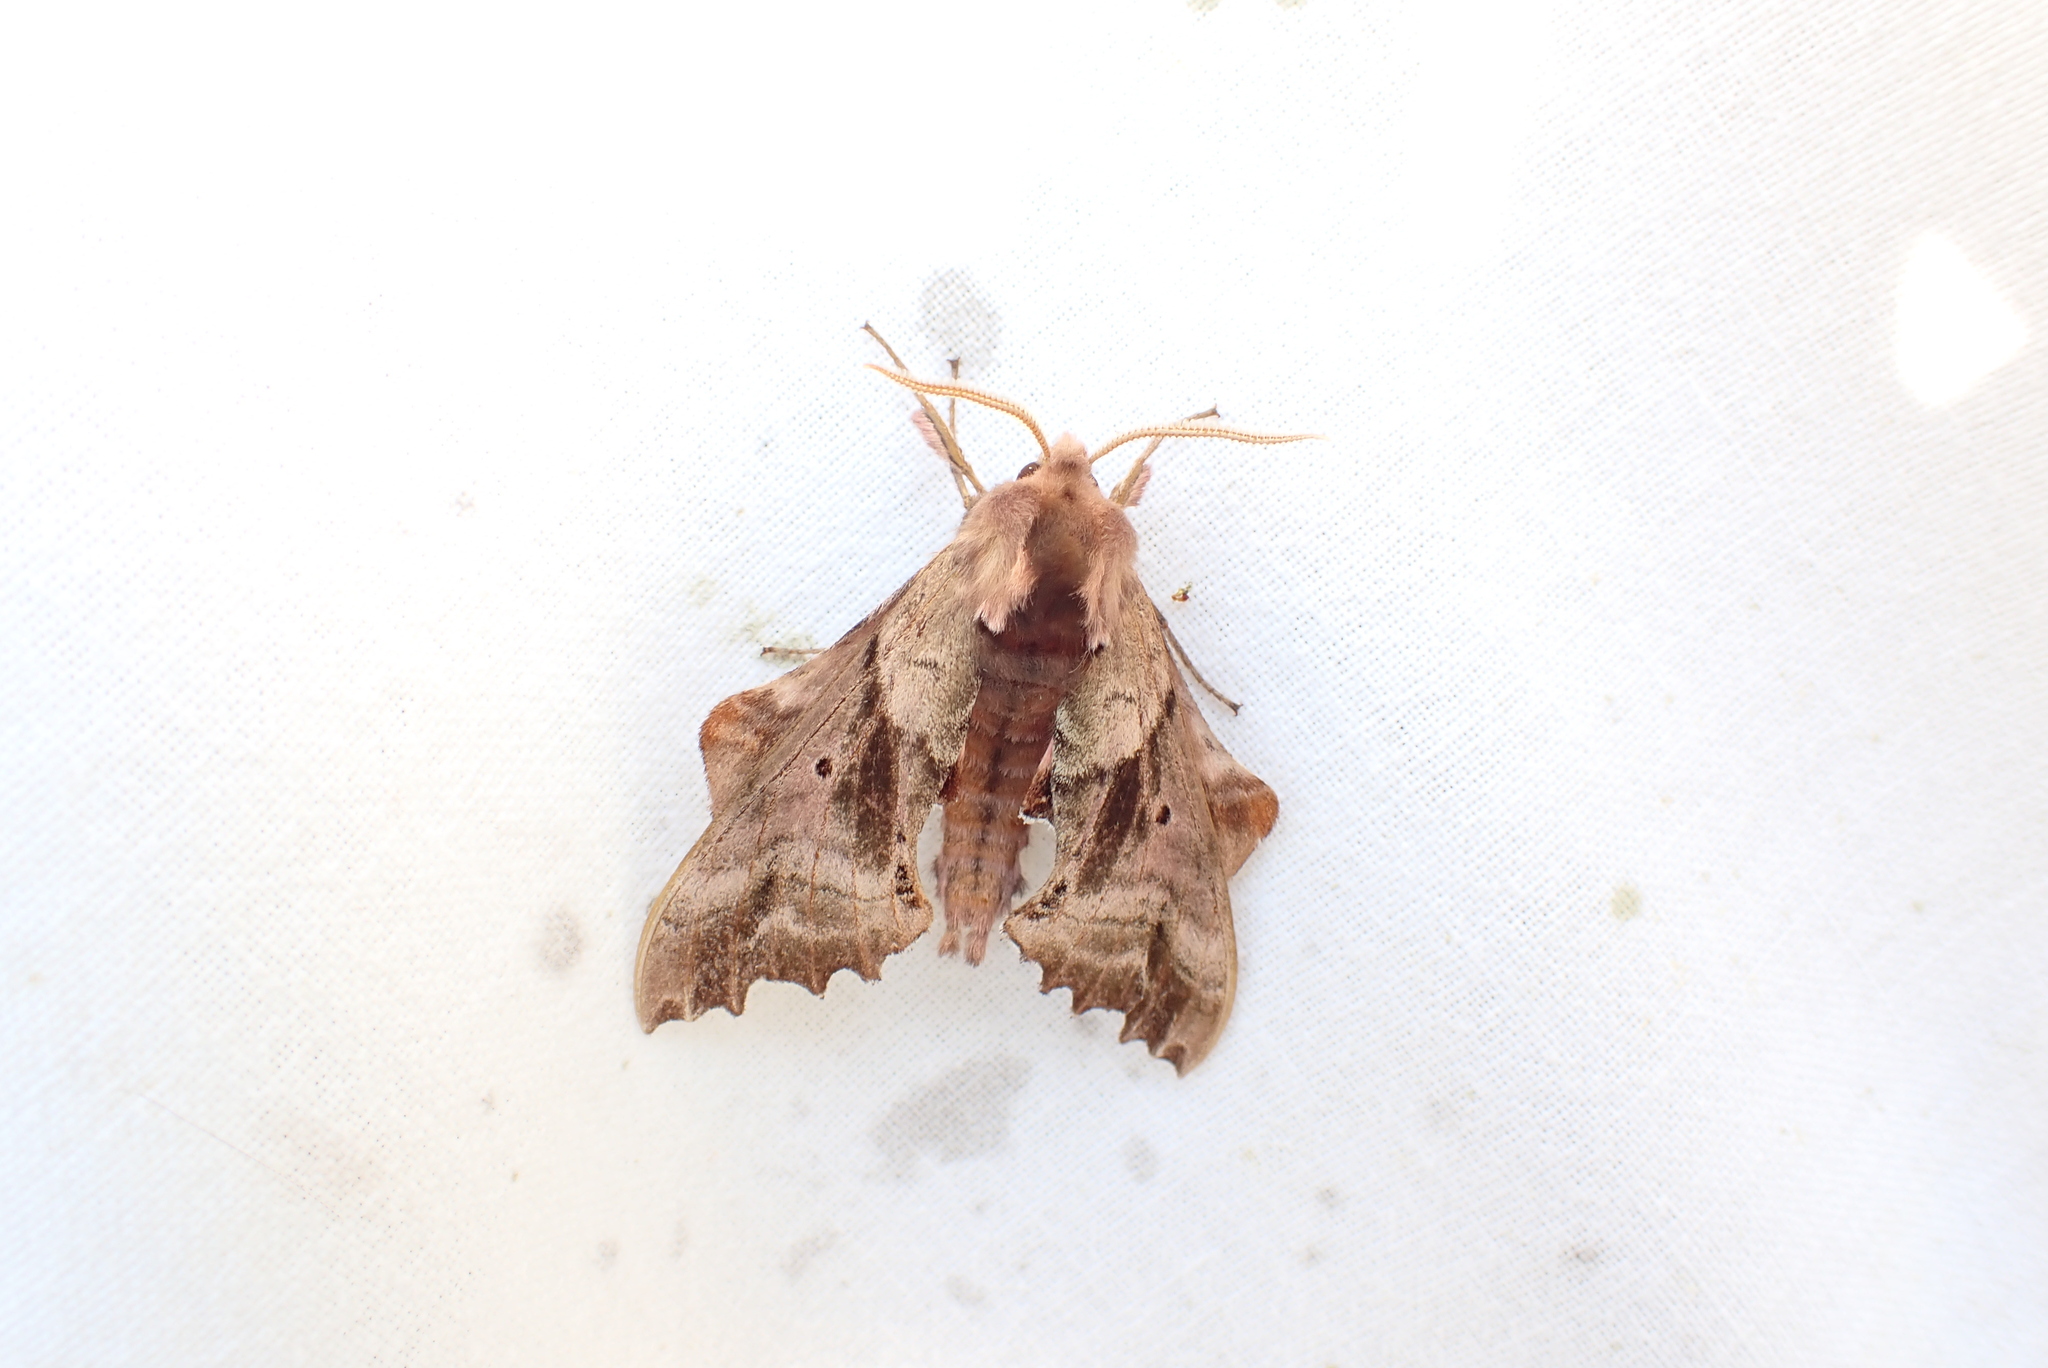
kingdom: Animalia
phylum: Arthropoda
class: Insecta
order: Lepidoptera
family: Sphingidae
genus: Paonias
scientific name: Paonias excaecata
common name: Blind-eyed sphinx
